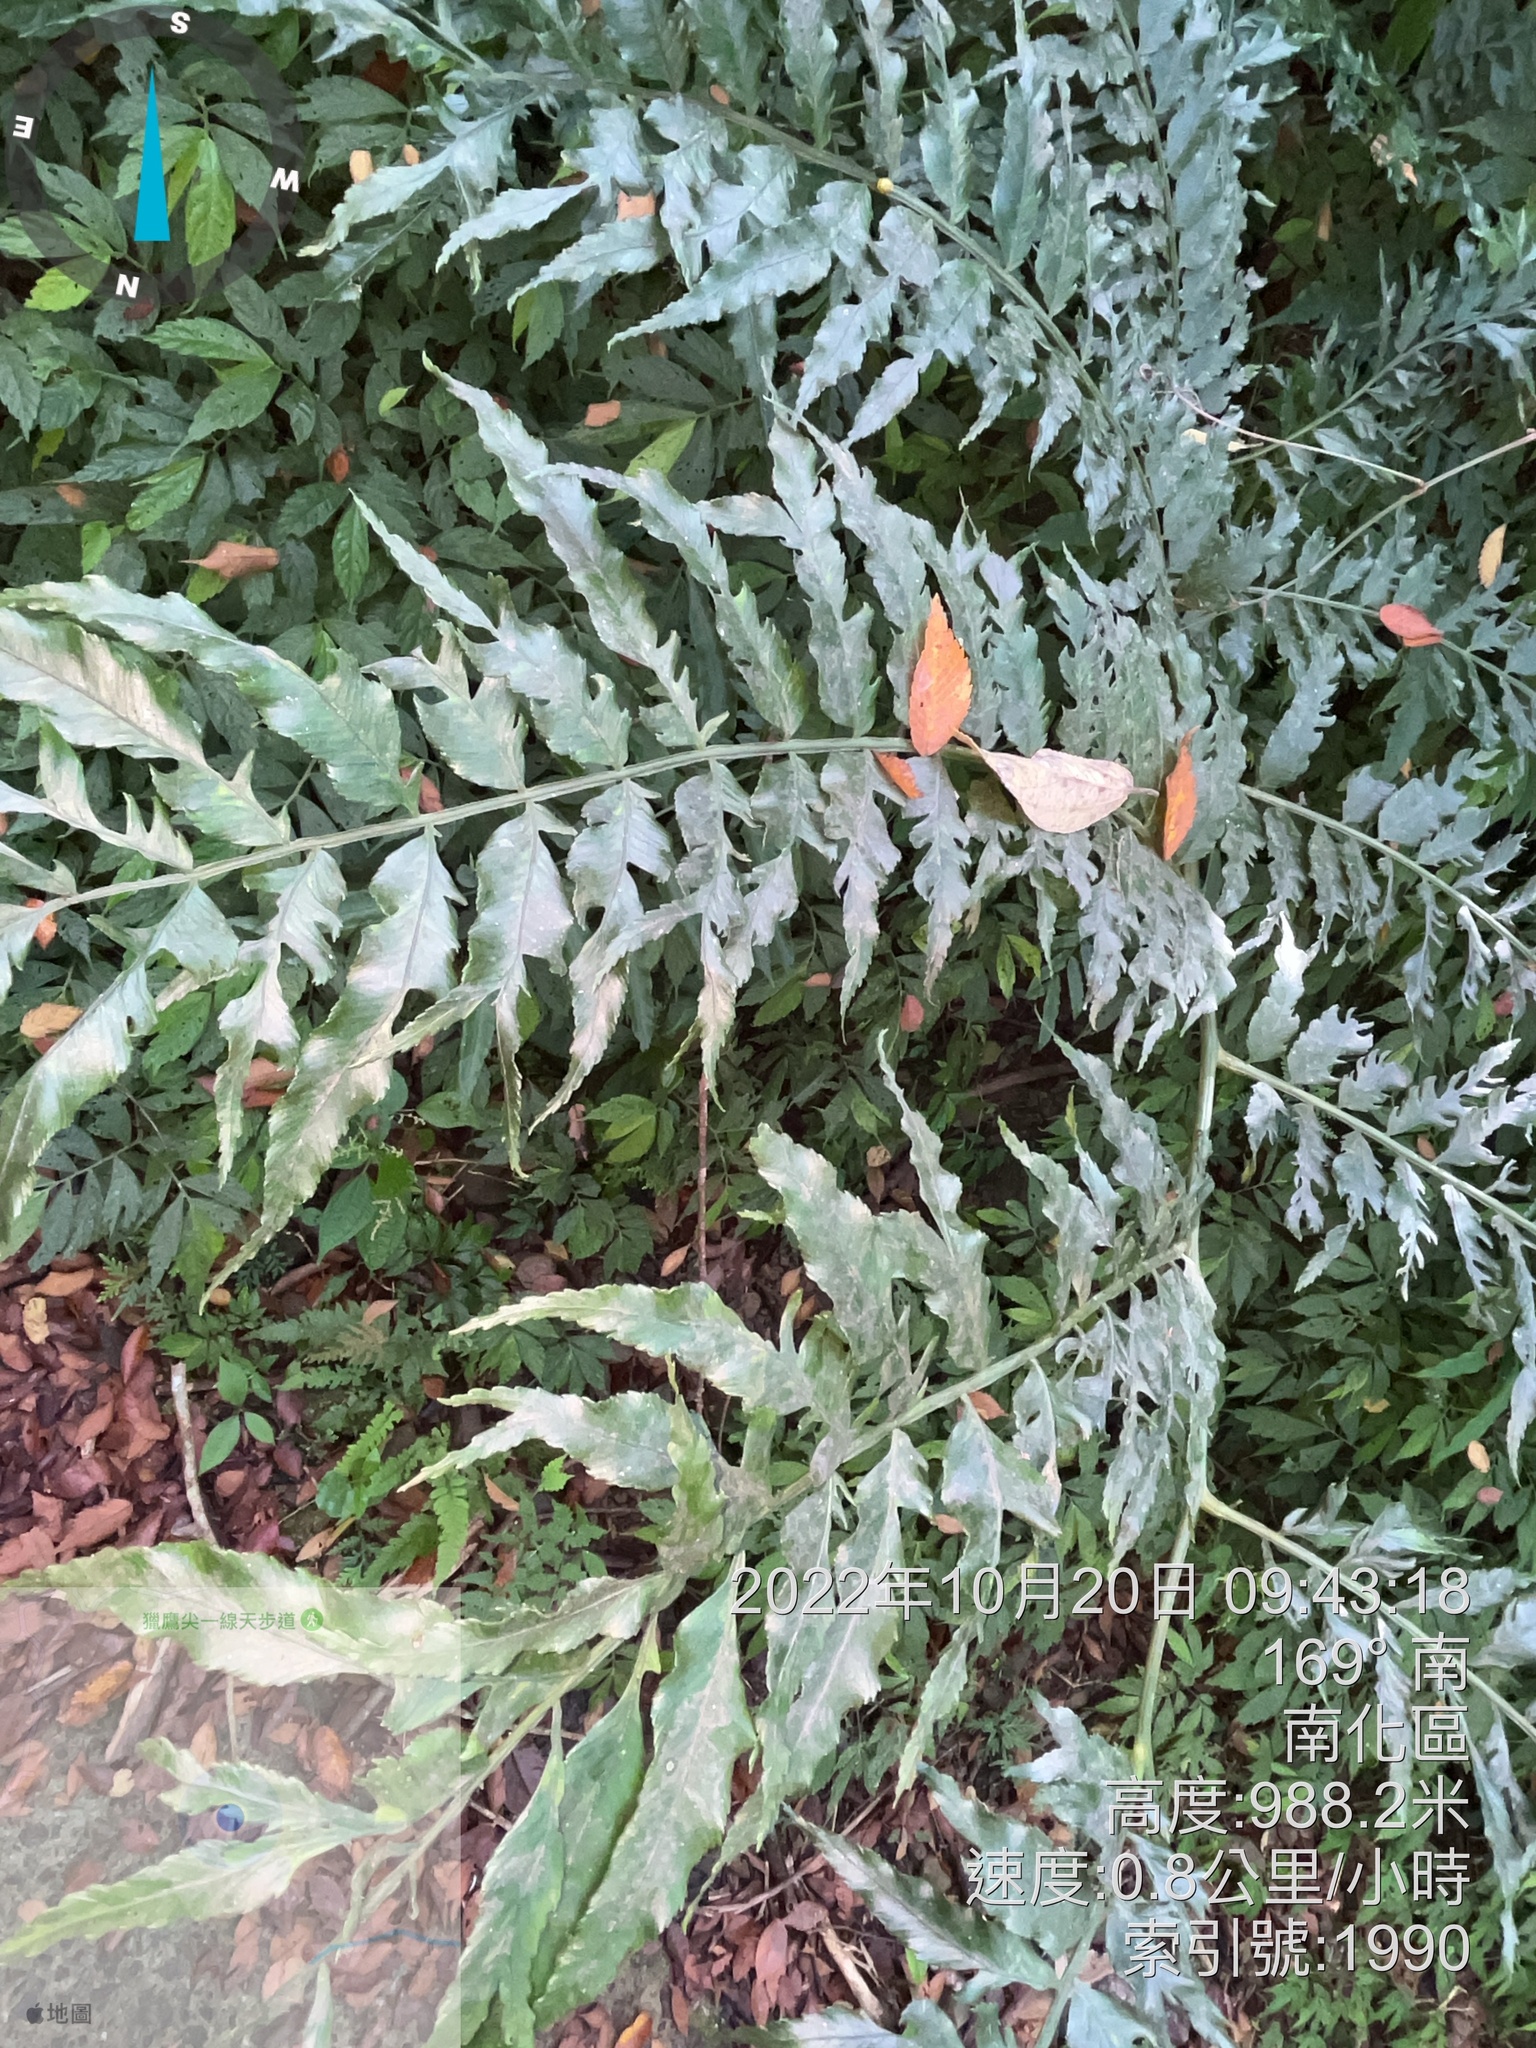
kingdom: Plantae
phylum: Tracheophyta
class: Polypodiopsida
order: Polypodiales
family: Pteridaceae
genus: Coniogramme
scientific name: Coniogramme intermedia
